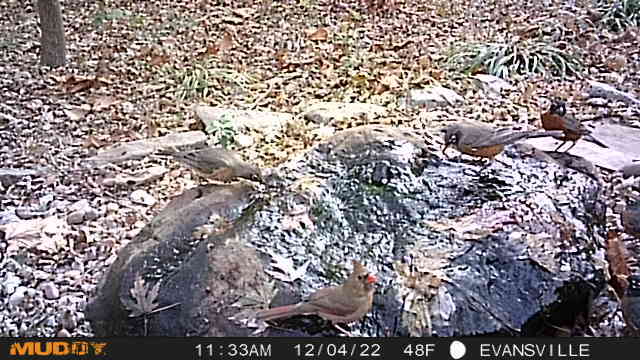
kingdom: Animalia
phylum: Chordata
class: Aves
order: Passeriformes
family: Cardinalidae
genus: Cardinalis
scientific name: Cardinalis cardinalis
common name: Northern cardinal
